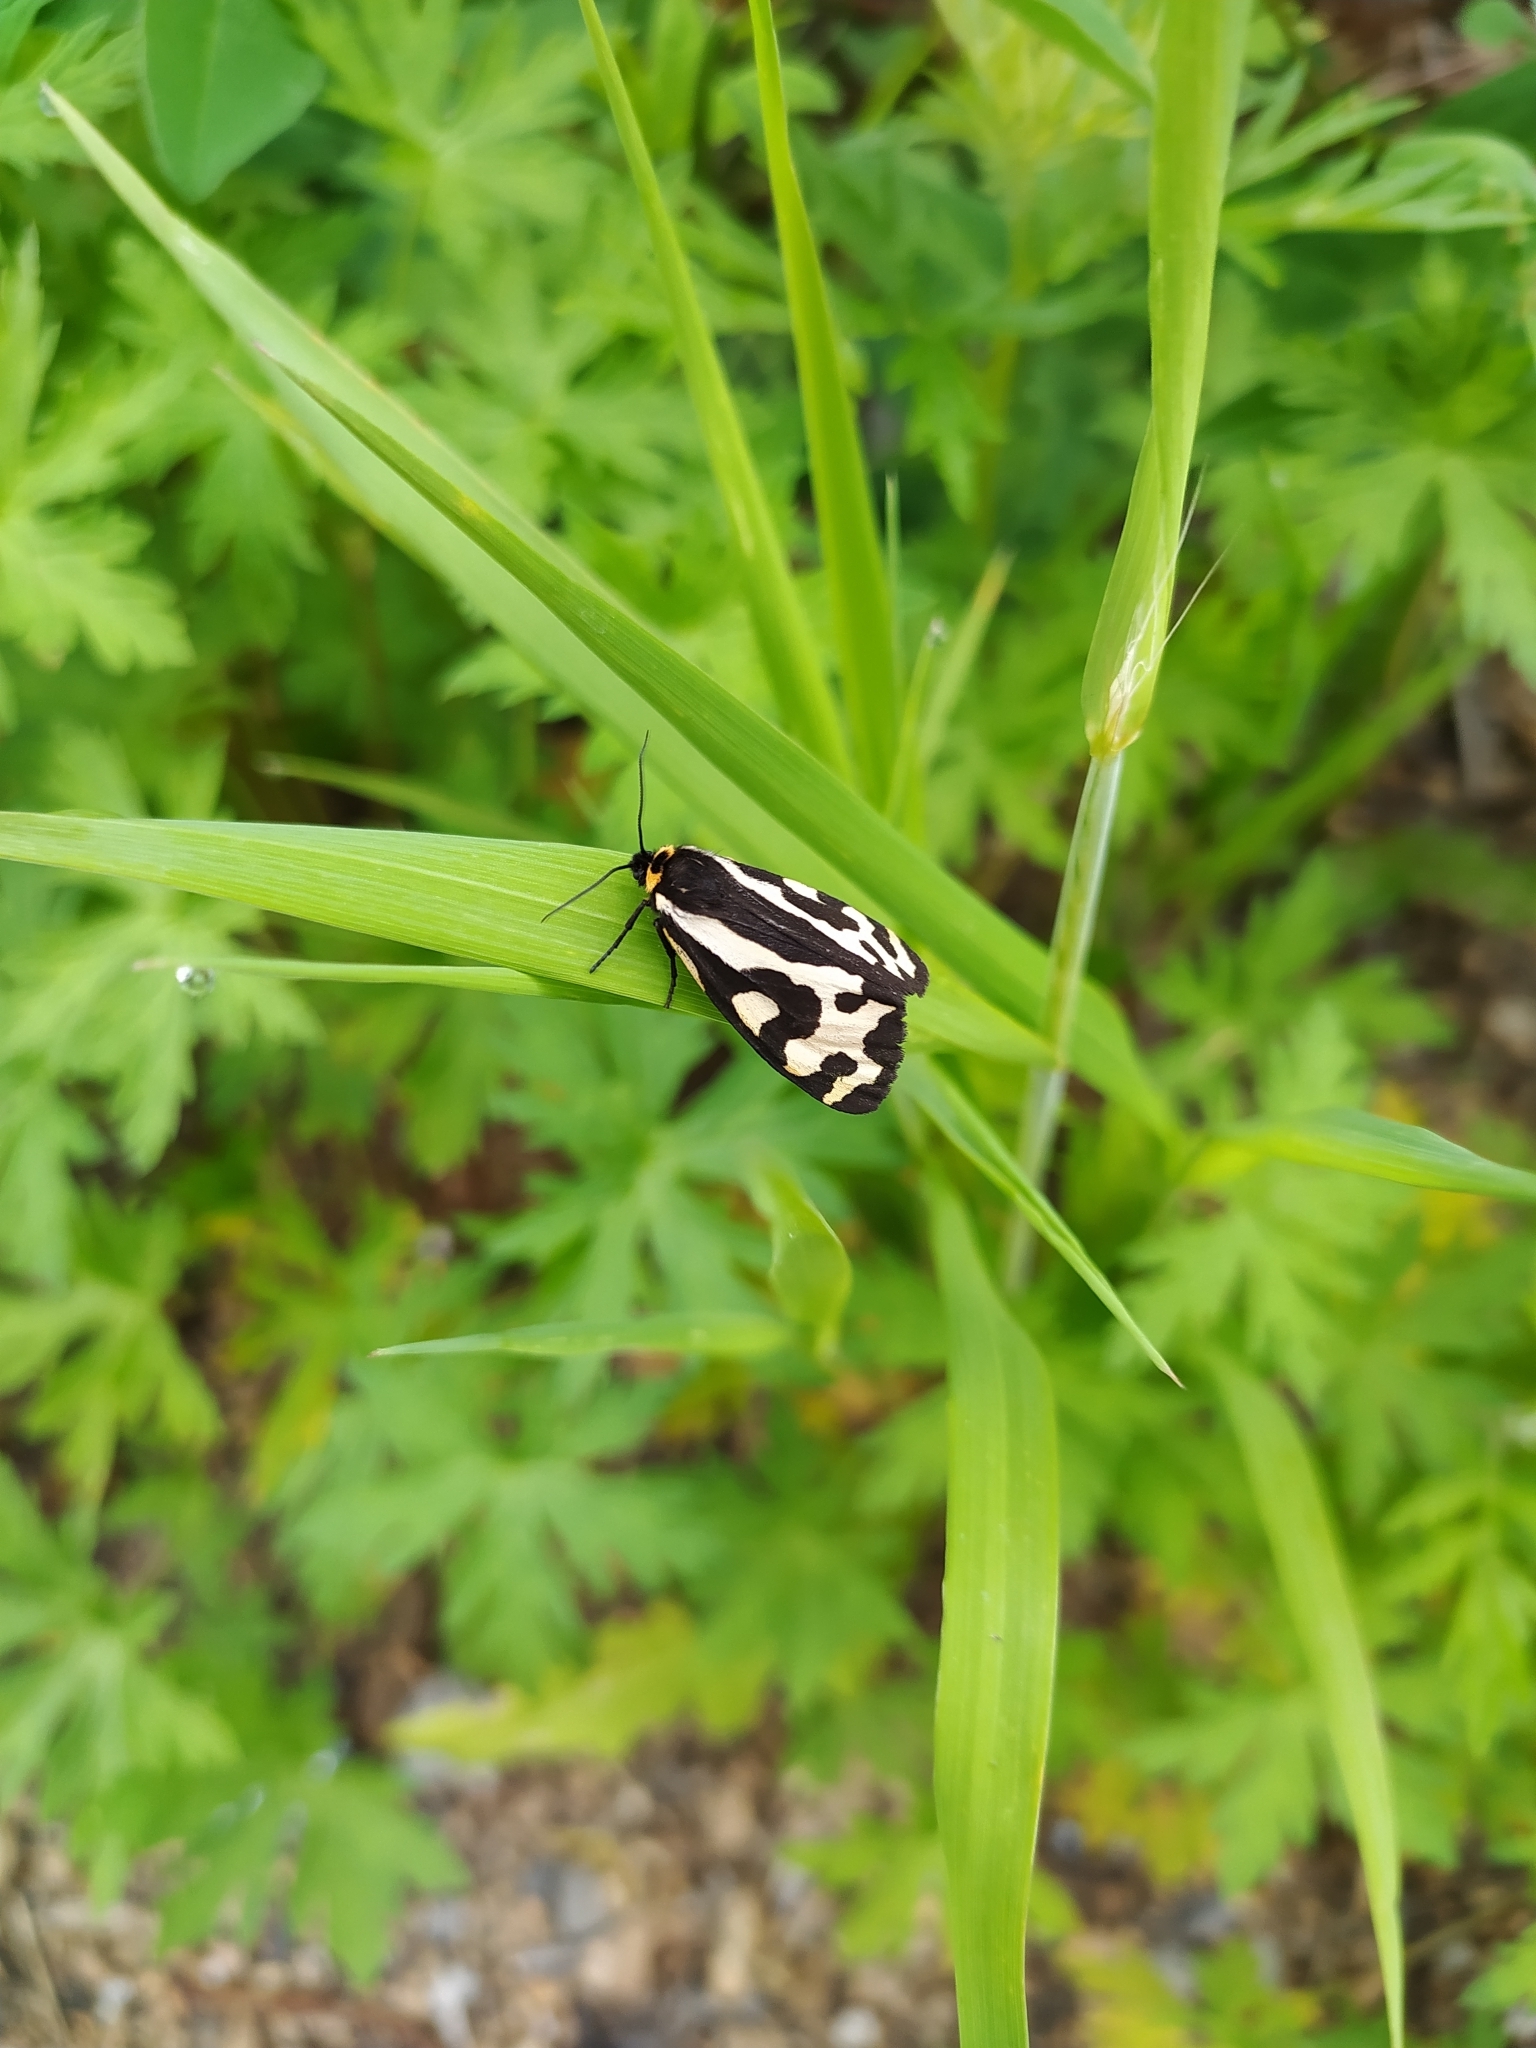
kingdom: Animalia
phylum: Arthropoda
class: Insecta
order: Lepidoptera
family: Erebidae
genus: Parasemia
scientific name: Parasemia plantaginis
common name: Wood tiger
